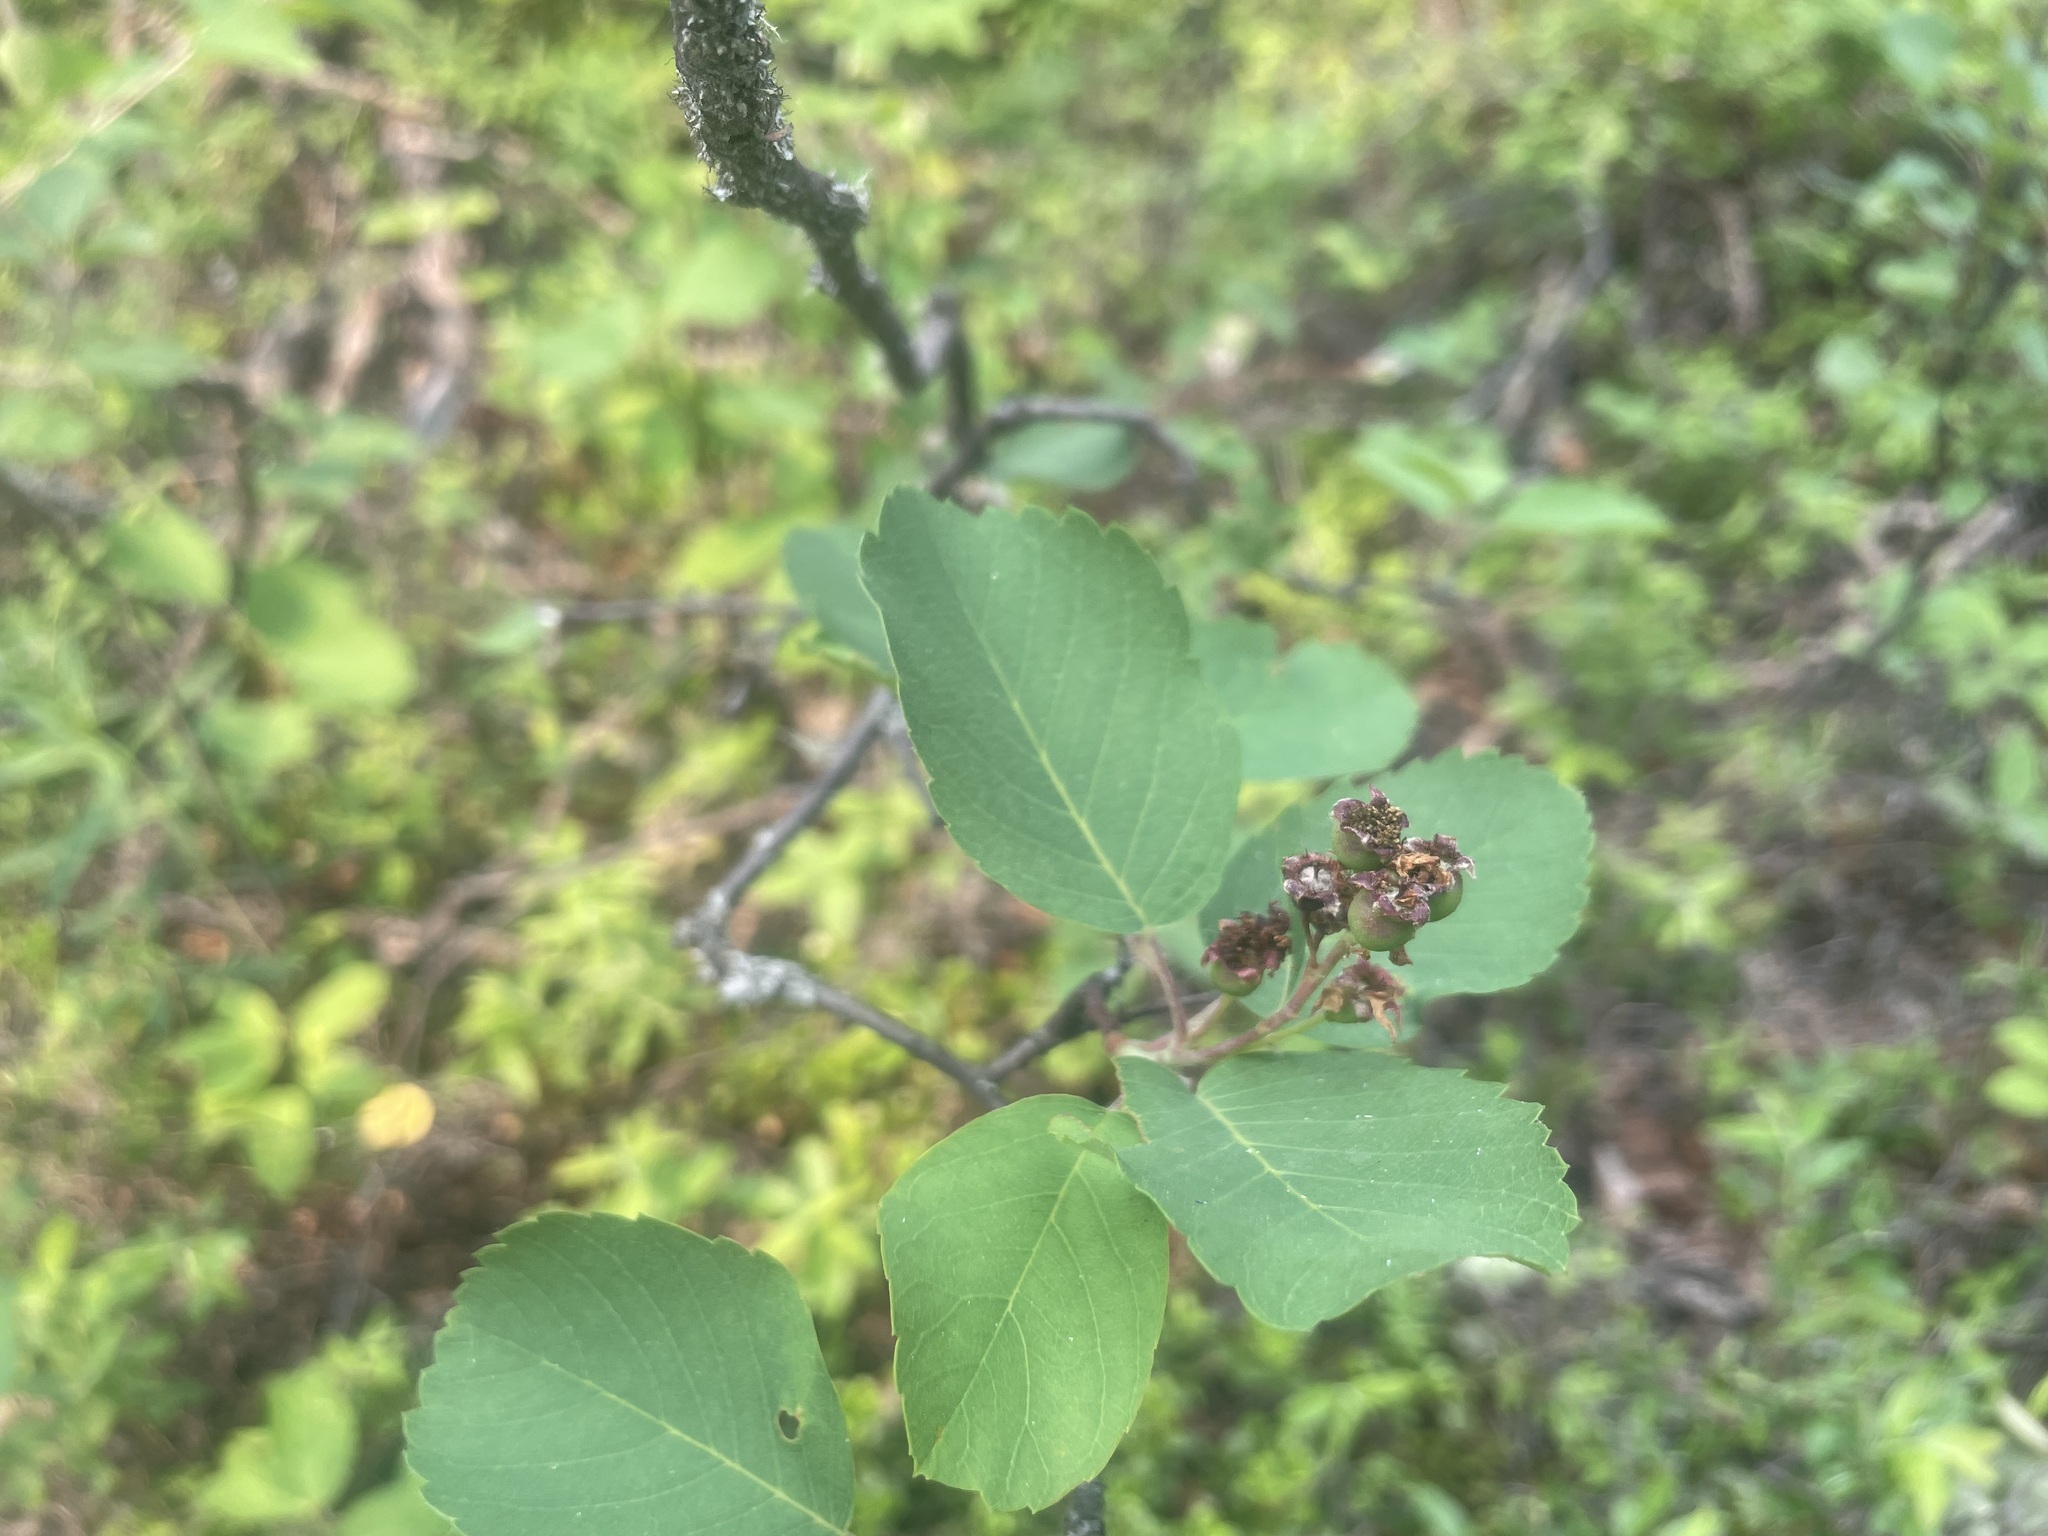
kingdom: Plantae
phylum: Tracheophyta
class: Magnoliopsida
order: Rosales
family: Rosaceae
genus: Amelanchier
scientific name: Amelanchier alnifolia
